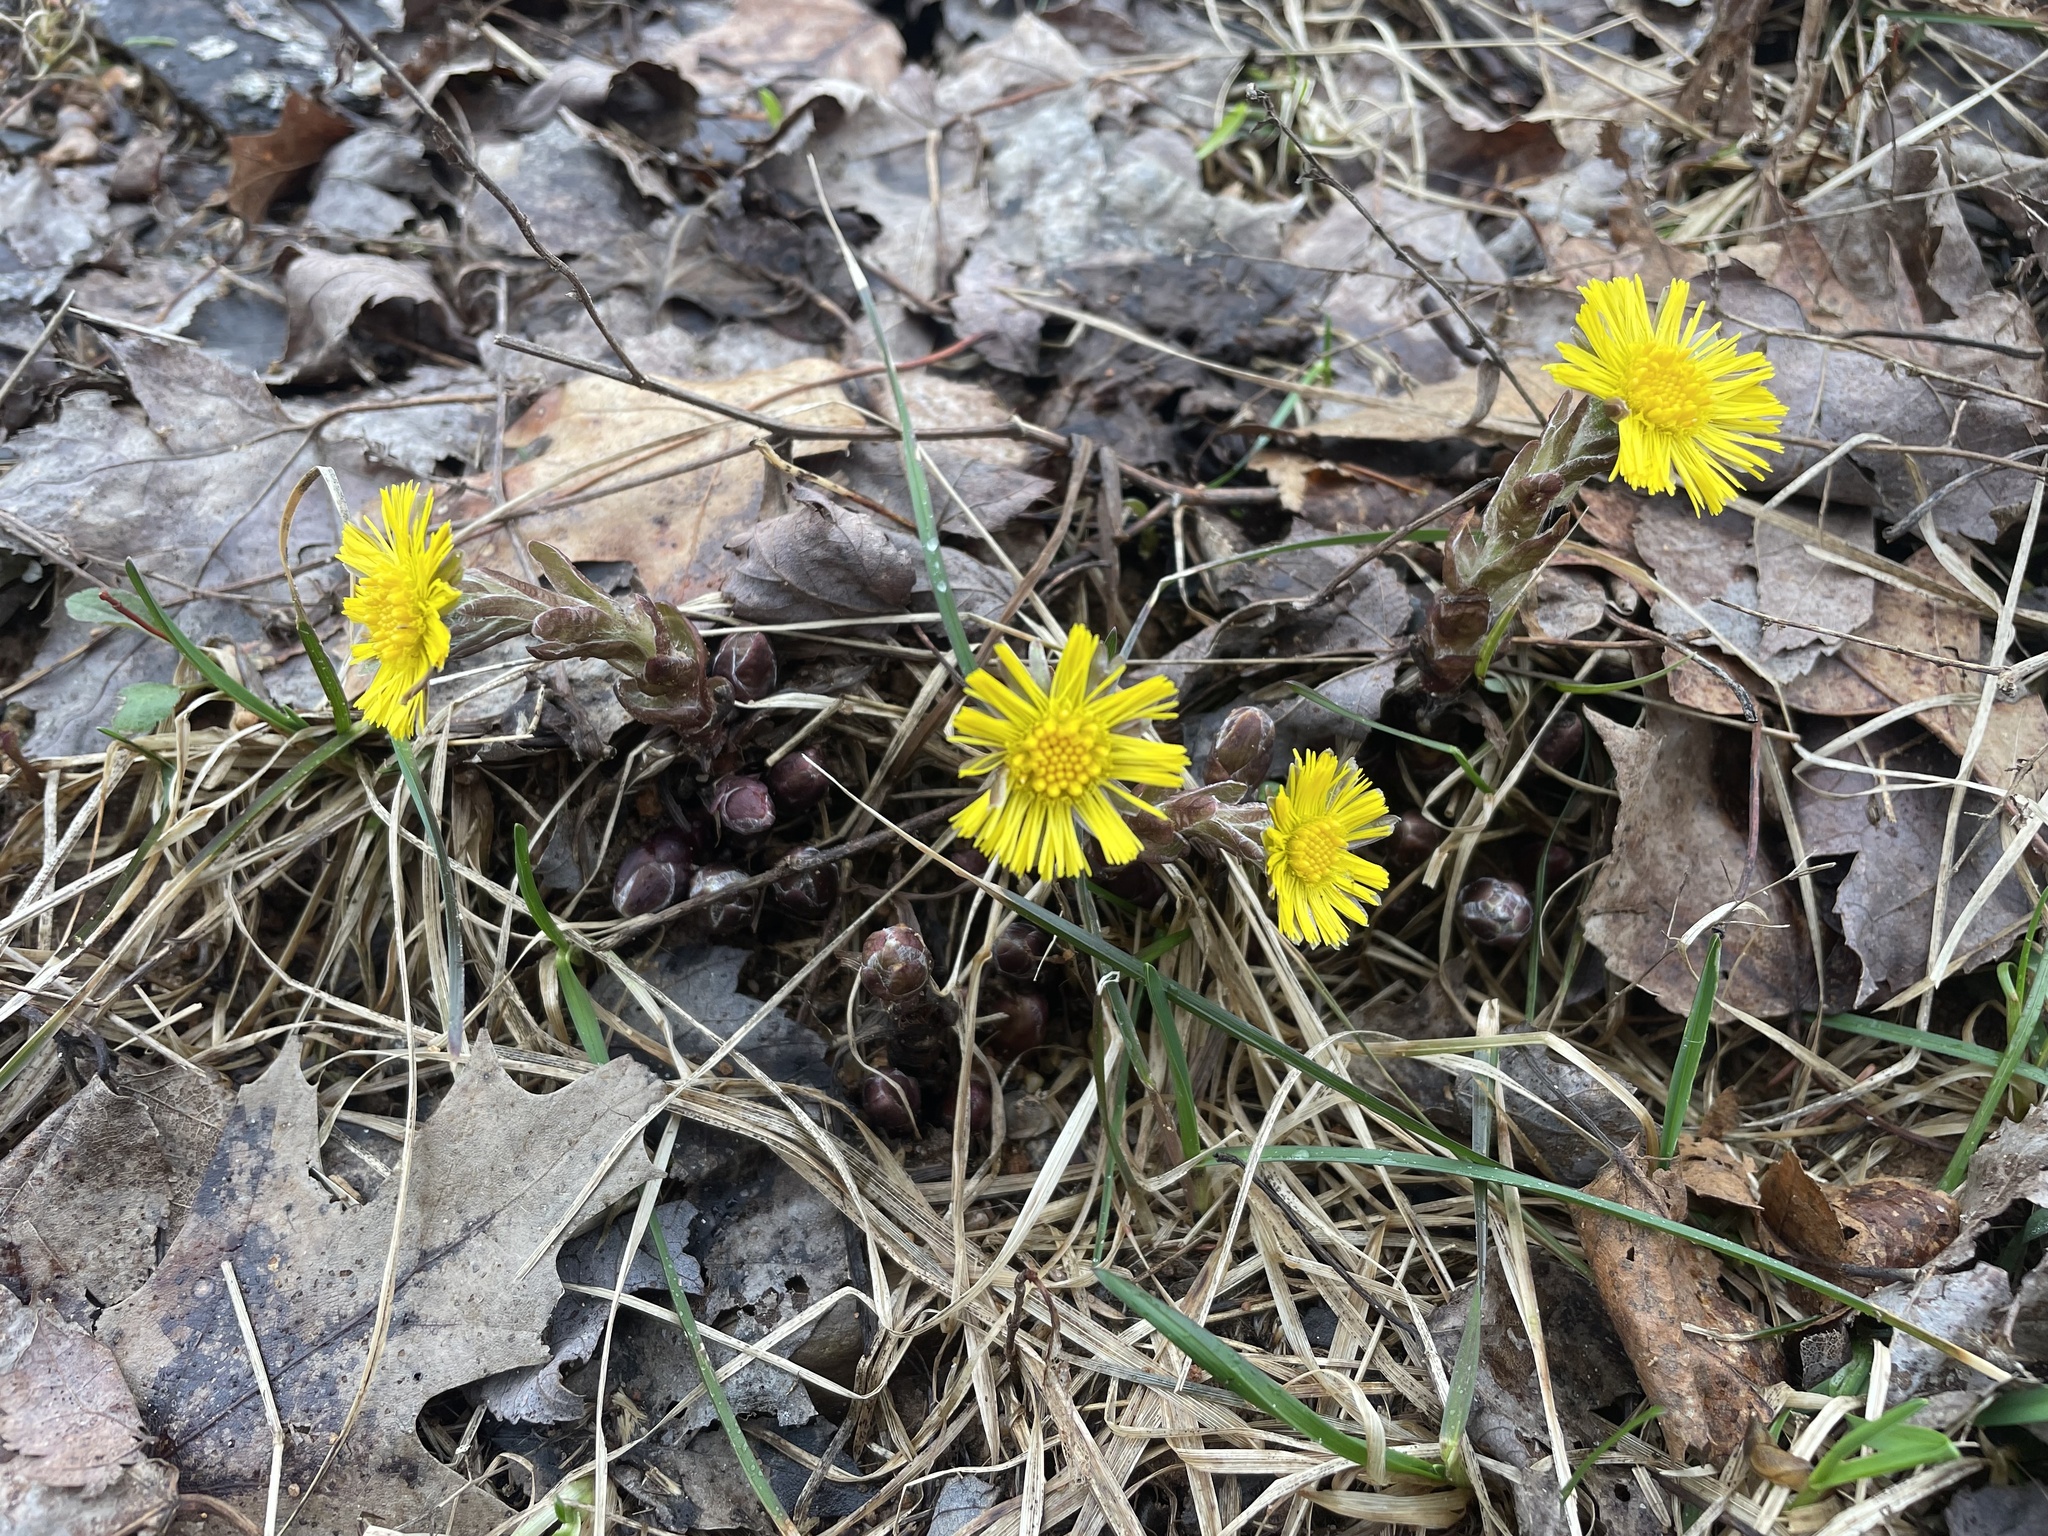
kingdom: Plantae
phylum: Tracheophyta
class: Magnoliopsida
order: Asterales
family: Asteraceae
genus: Tussilago
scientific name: Tussilago farfara
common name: Coltsfoot
